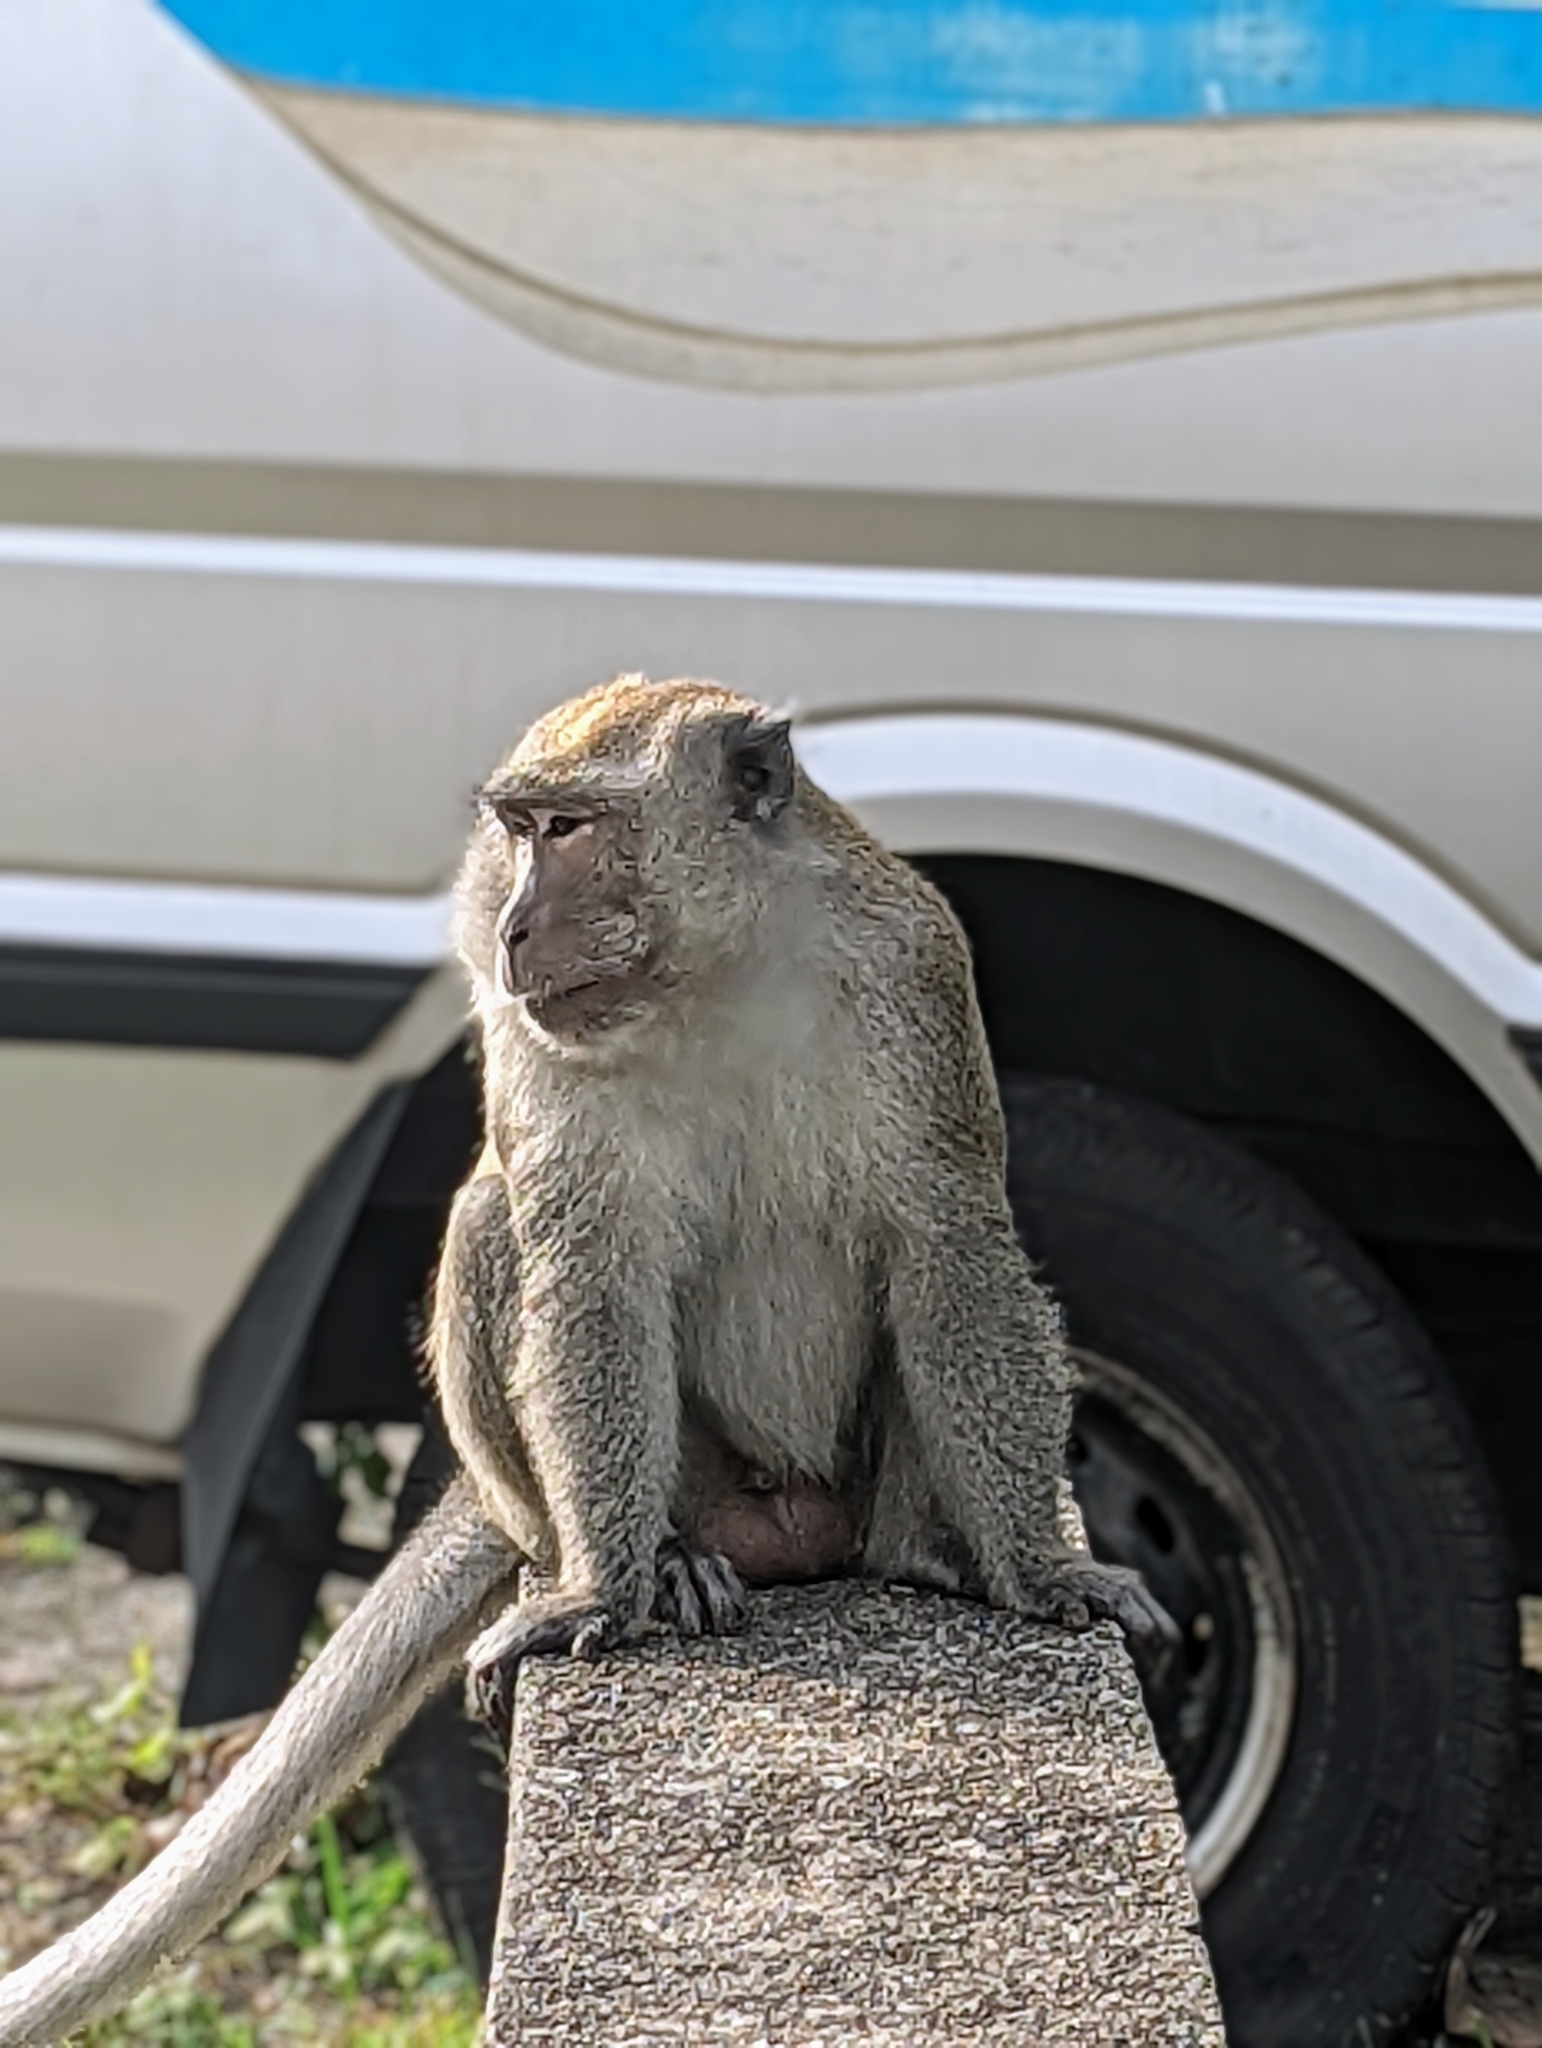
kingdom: Animalia
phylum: Chordata
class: Mammalia
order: Primates
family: Cercopithecidae
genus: Macaca
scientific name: Macaca fascicularis
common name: Crab-eating macaque
